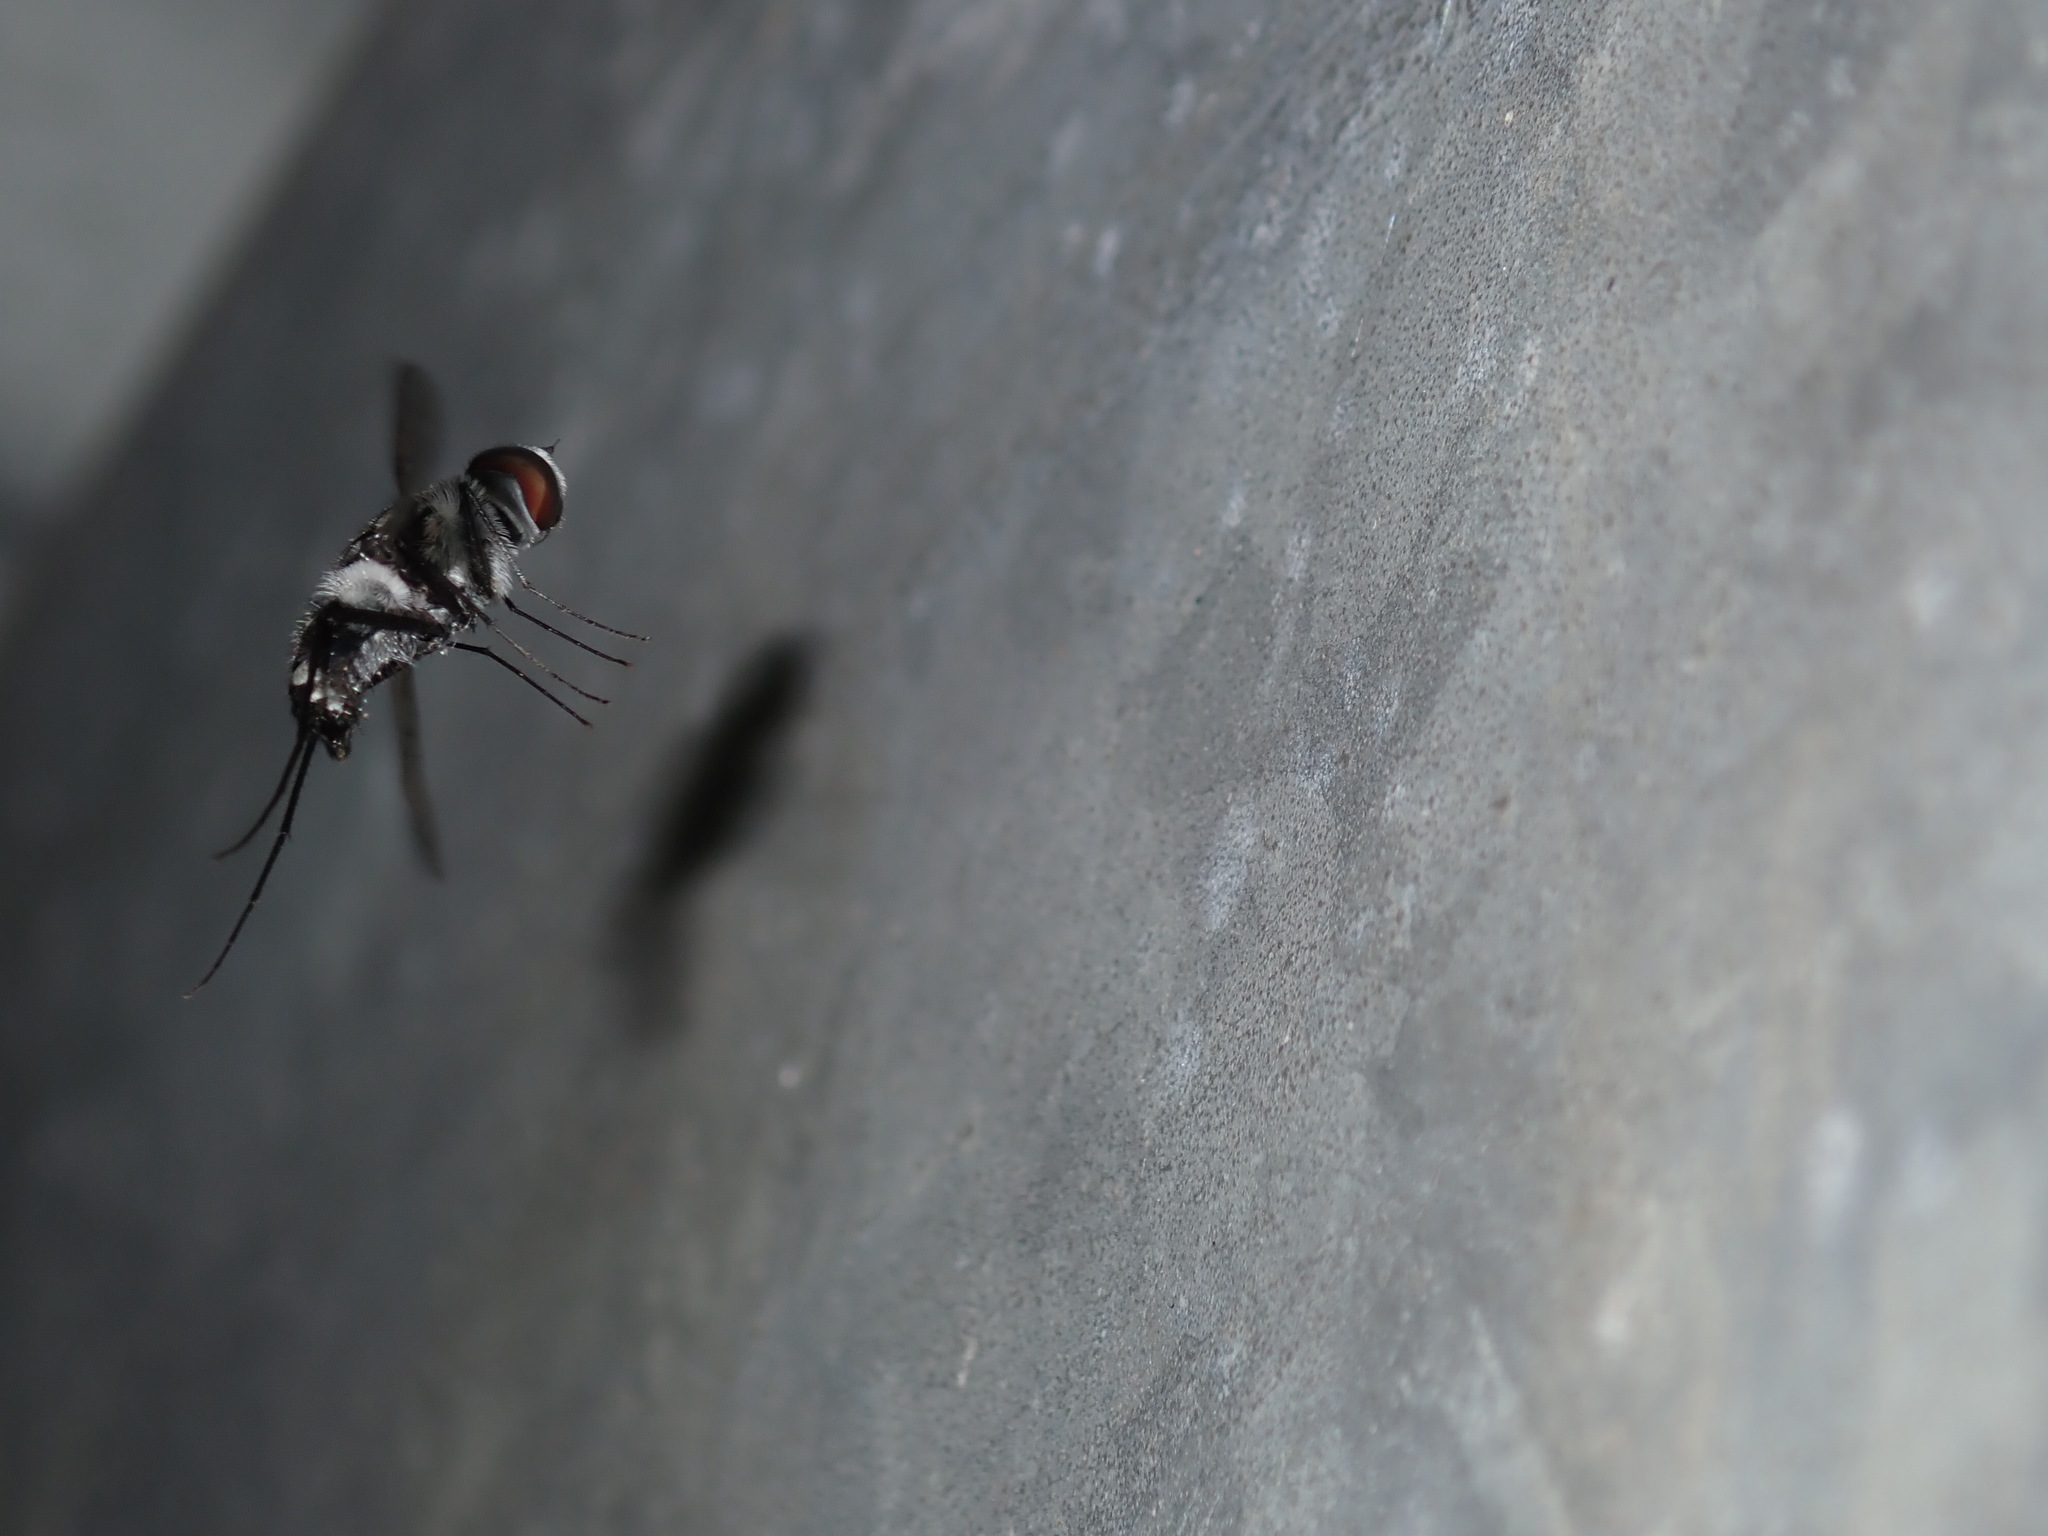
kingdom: Animalia
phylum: Arthropoda
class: Insecta
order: Diptera
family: Bombyliidae
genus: Thraxan
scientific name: Thraxan
